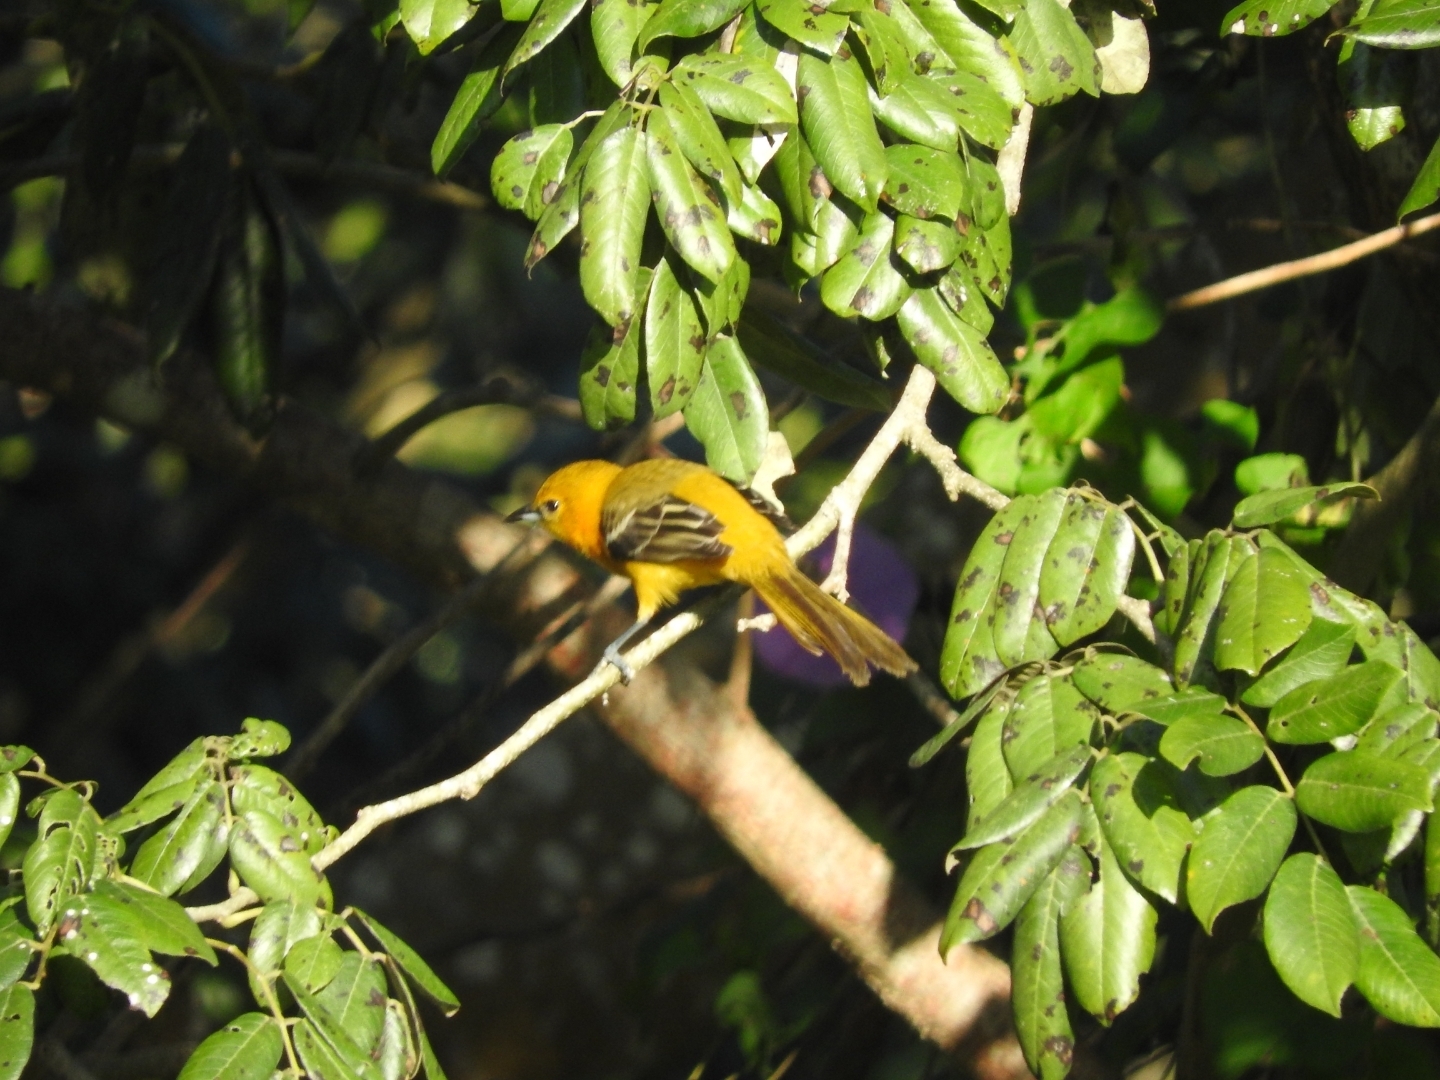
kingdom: Animalia
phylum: Chordata
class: Aves
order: Passeriformes
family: Icteridae
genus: Icterus
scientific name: Icterus mesomelas
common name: Yellow-tailed oriole
